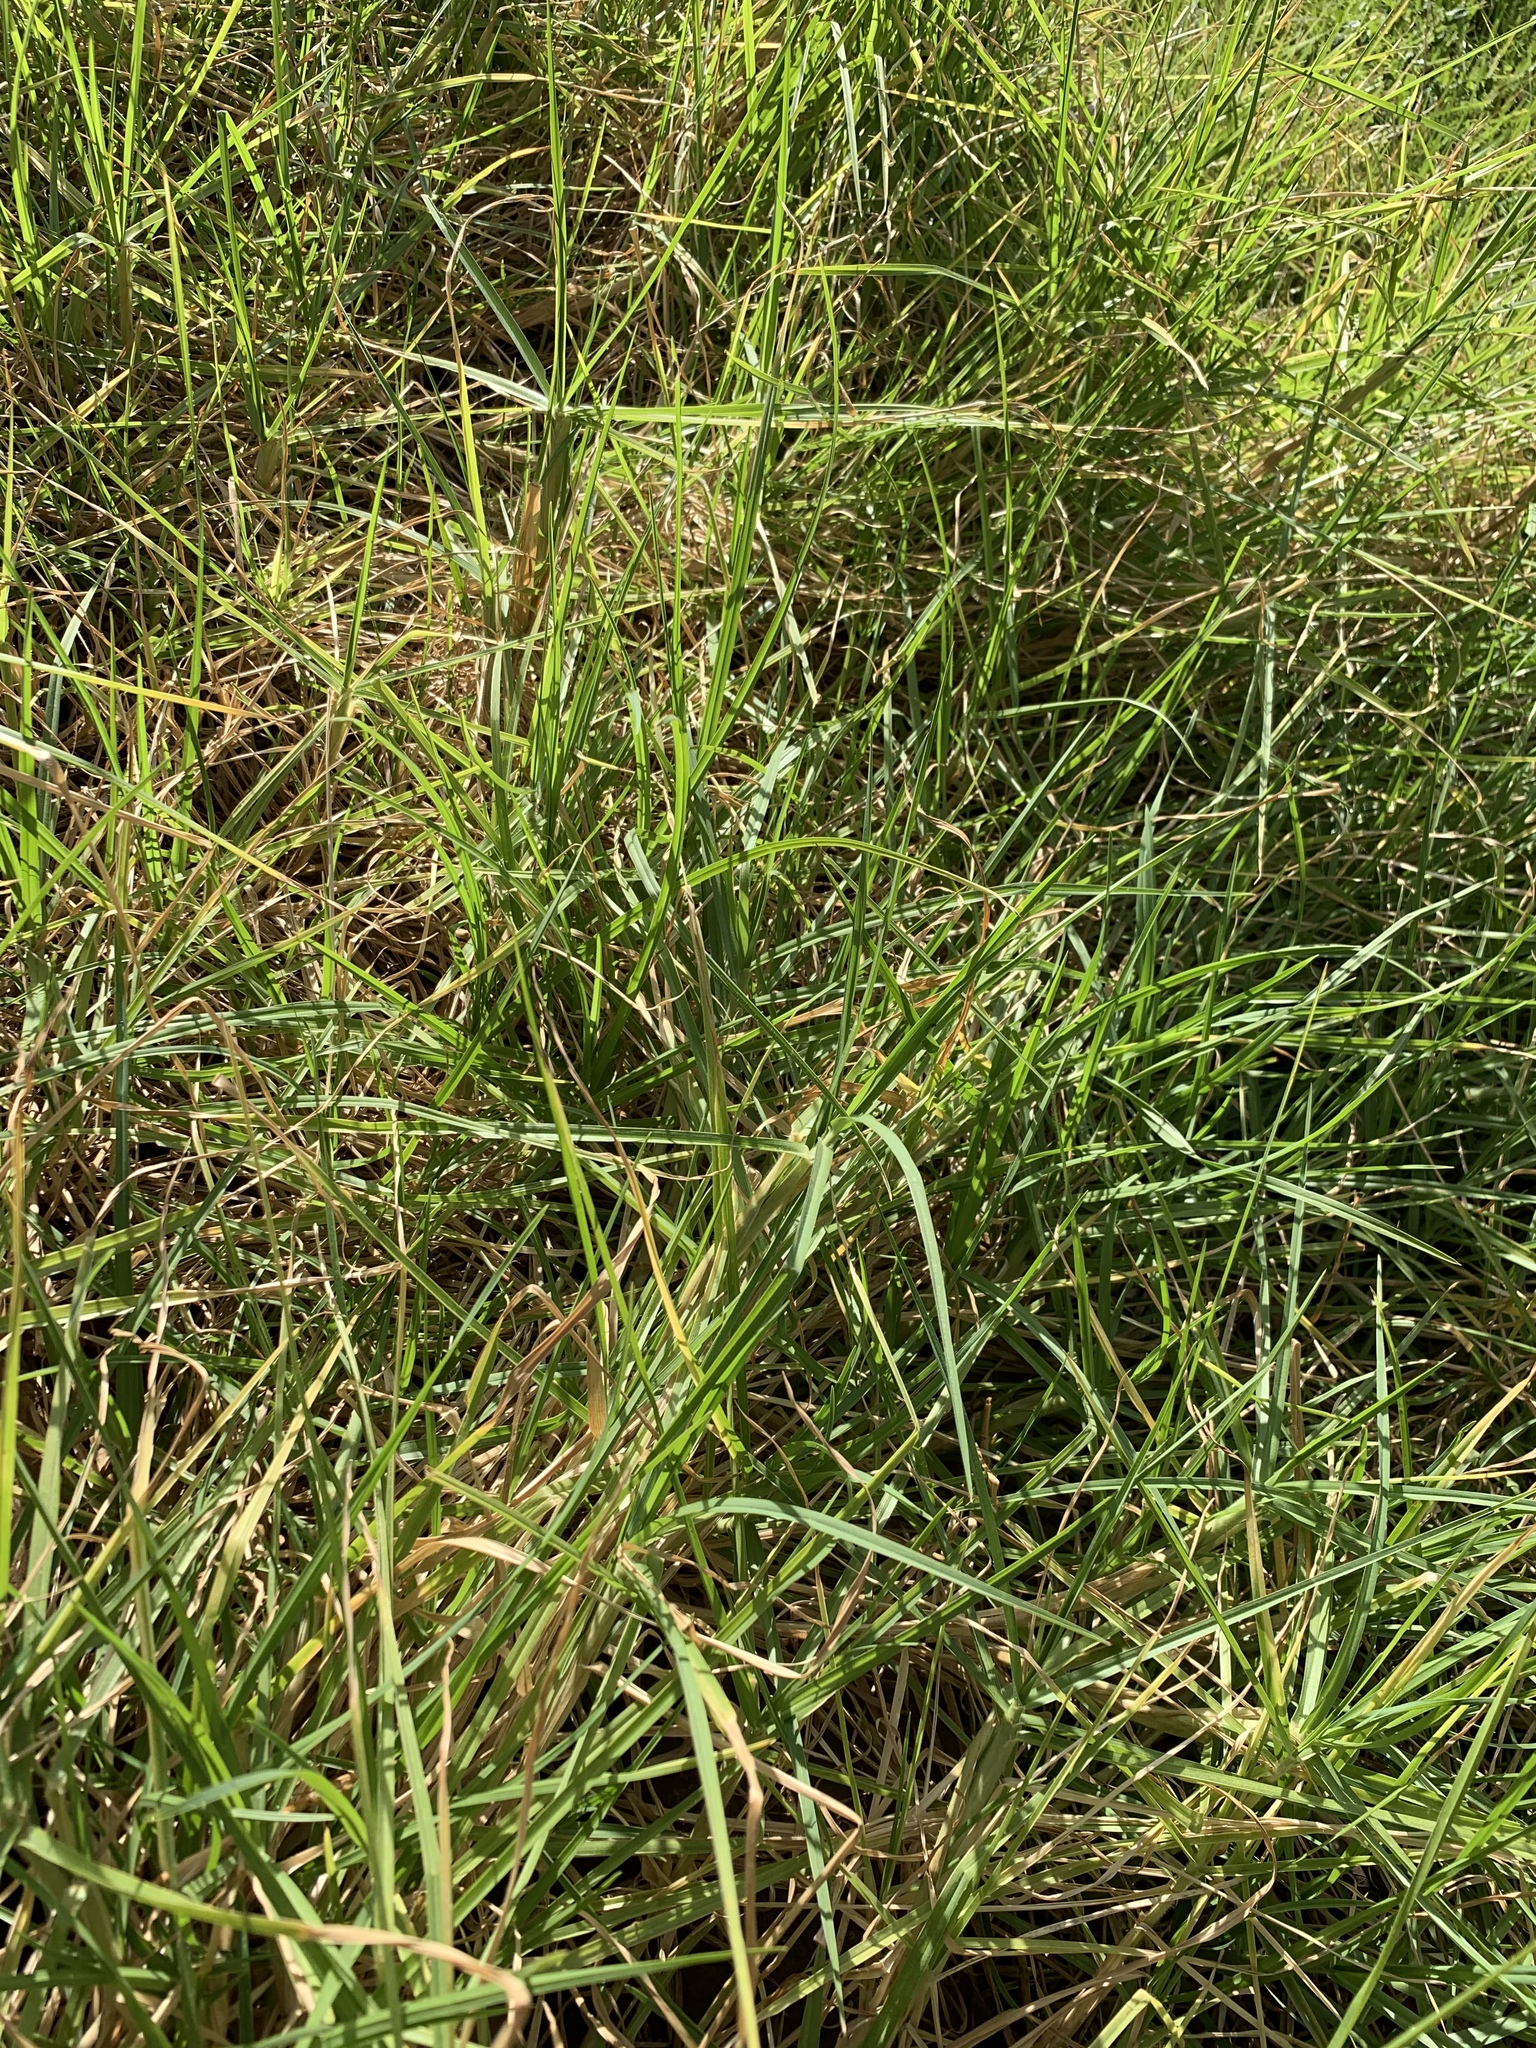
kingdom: Plantae
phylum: Tracheophyta
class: Liliopsida
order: Poales
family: Poaceae
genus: Cenchrus
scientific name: Cenchrus clandestinus
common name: Kikuyugrass
